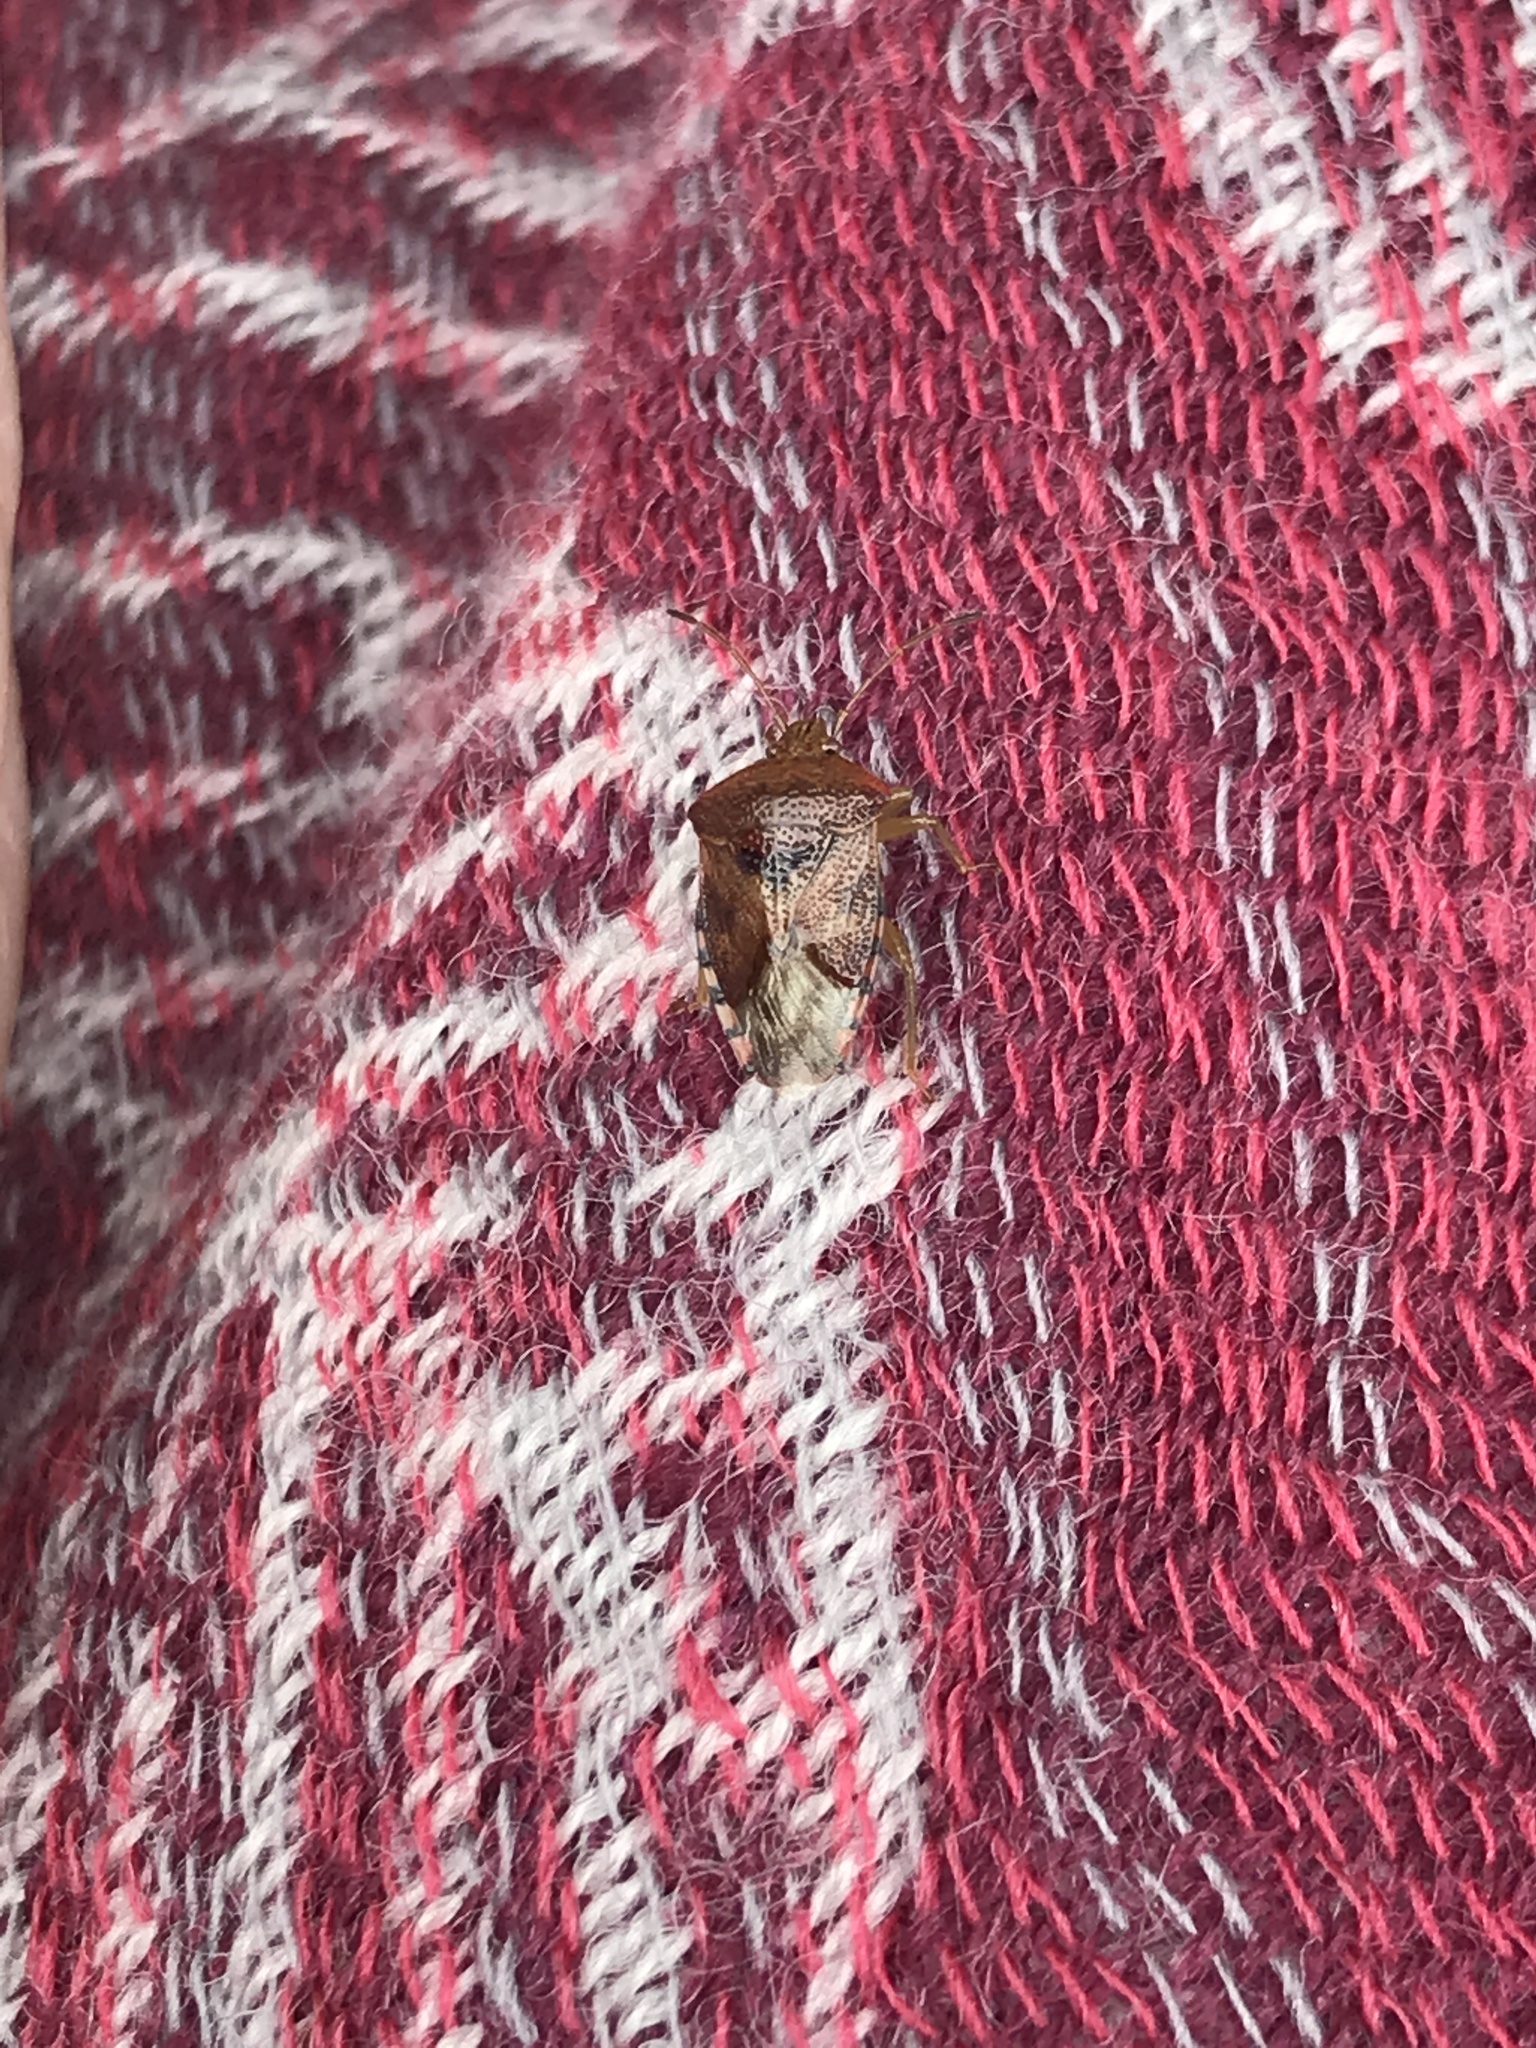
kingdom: Animalia
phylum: Arthropoda
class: Insecta
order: Hemiptera
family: Acanthosomatidae
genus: Elasmucha
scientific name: Elasmucha grisea
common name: Parent bug
